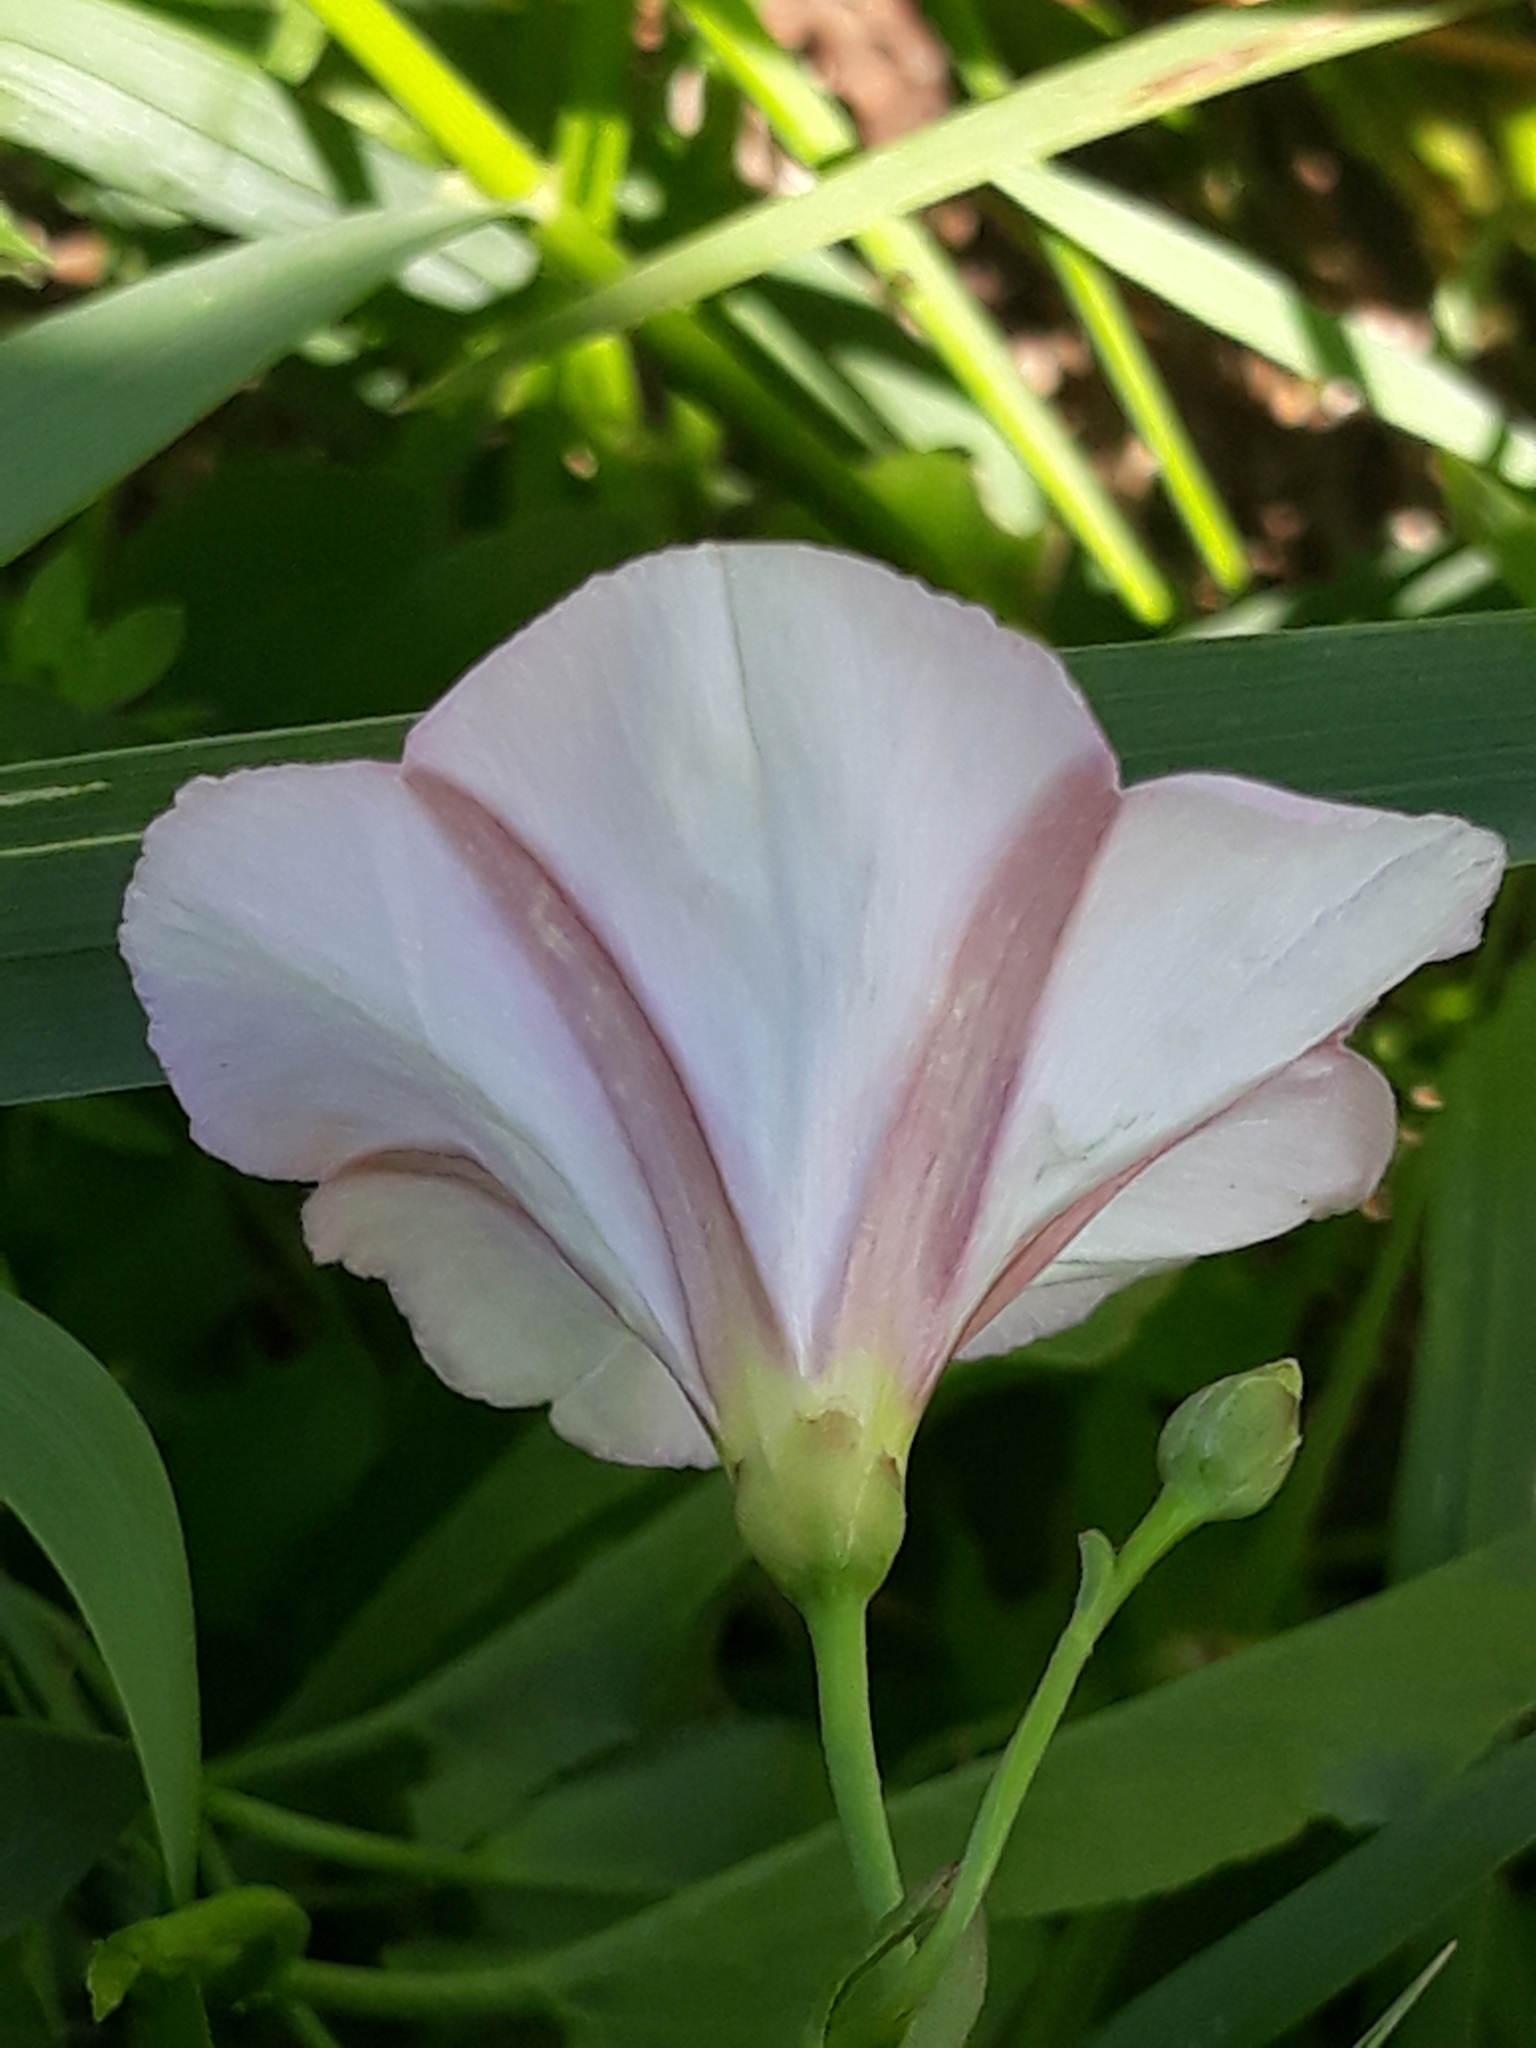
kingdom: Plantae
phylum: Tracheophyta
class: Magnoliopsida
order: Solanales
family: Convolvulaceae
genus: Convolvulus
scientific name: Convolvulus arvensis
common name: Field bindweed
